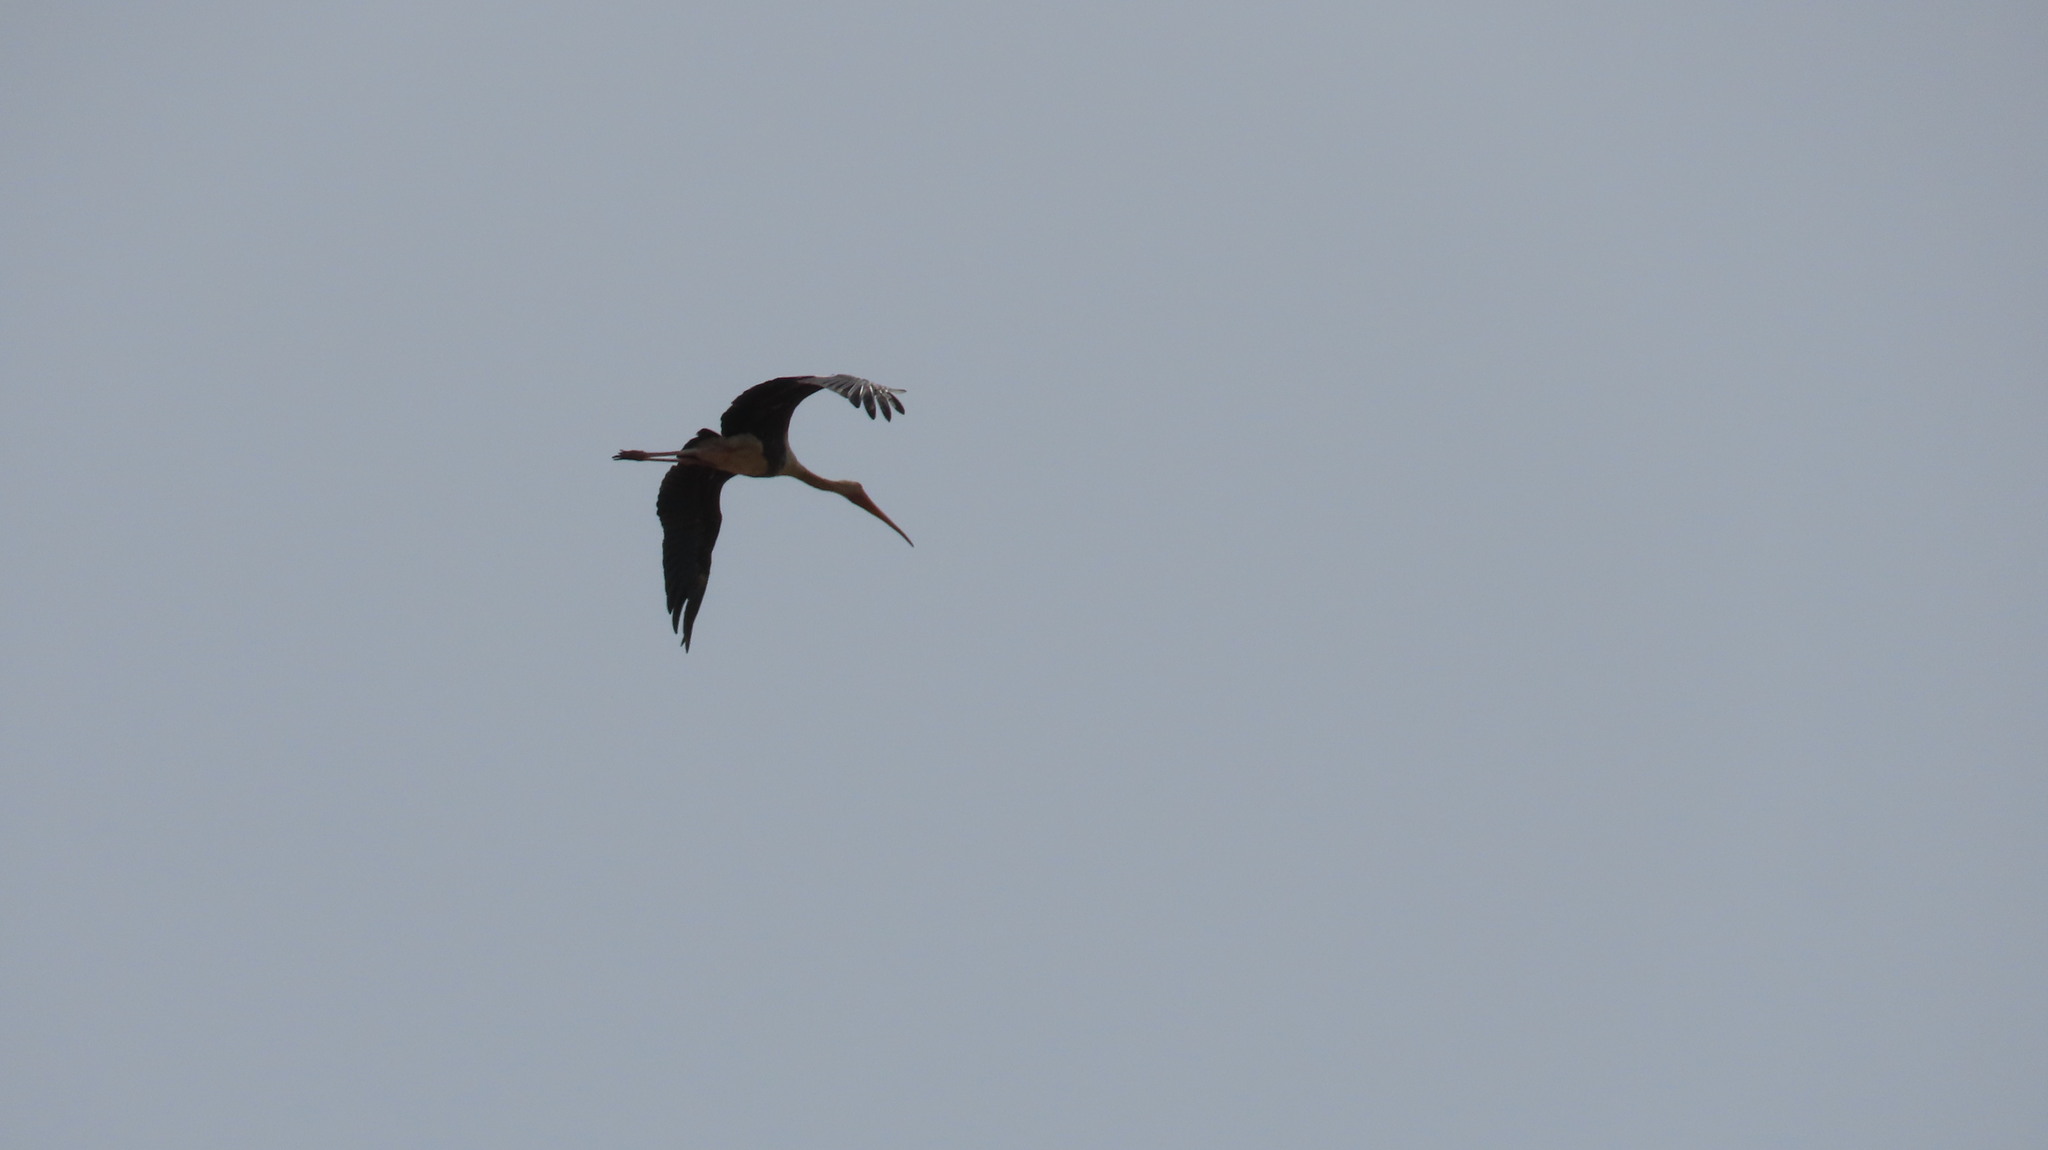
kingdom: Animalia
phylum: Chordata
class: Aves
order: Ciconiiformes
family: Ciconiidae
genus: Mycteria
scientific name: Mycteria leucocephala
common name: Painted stork
